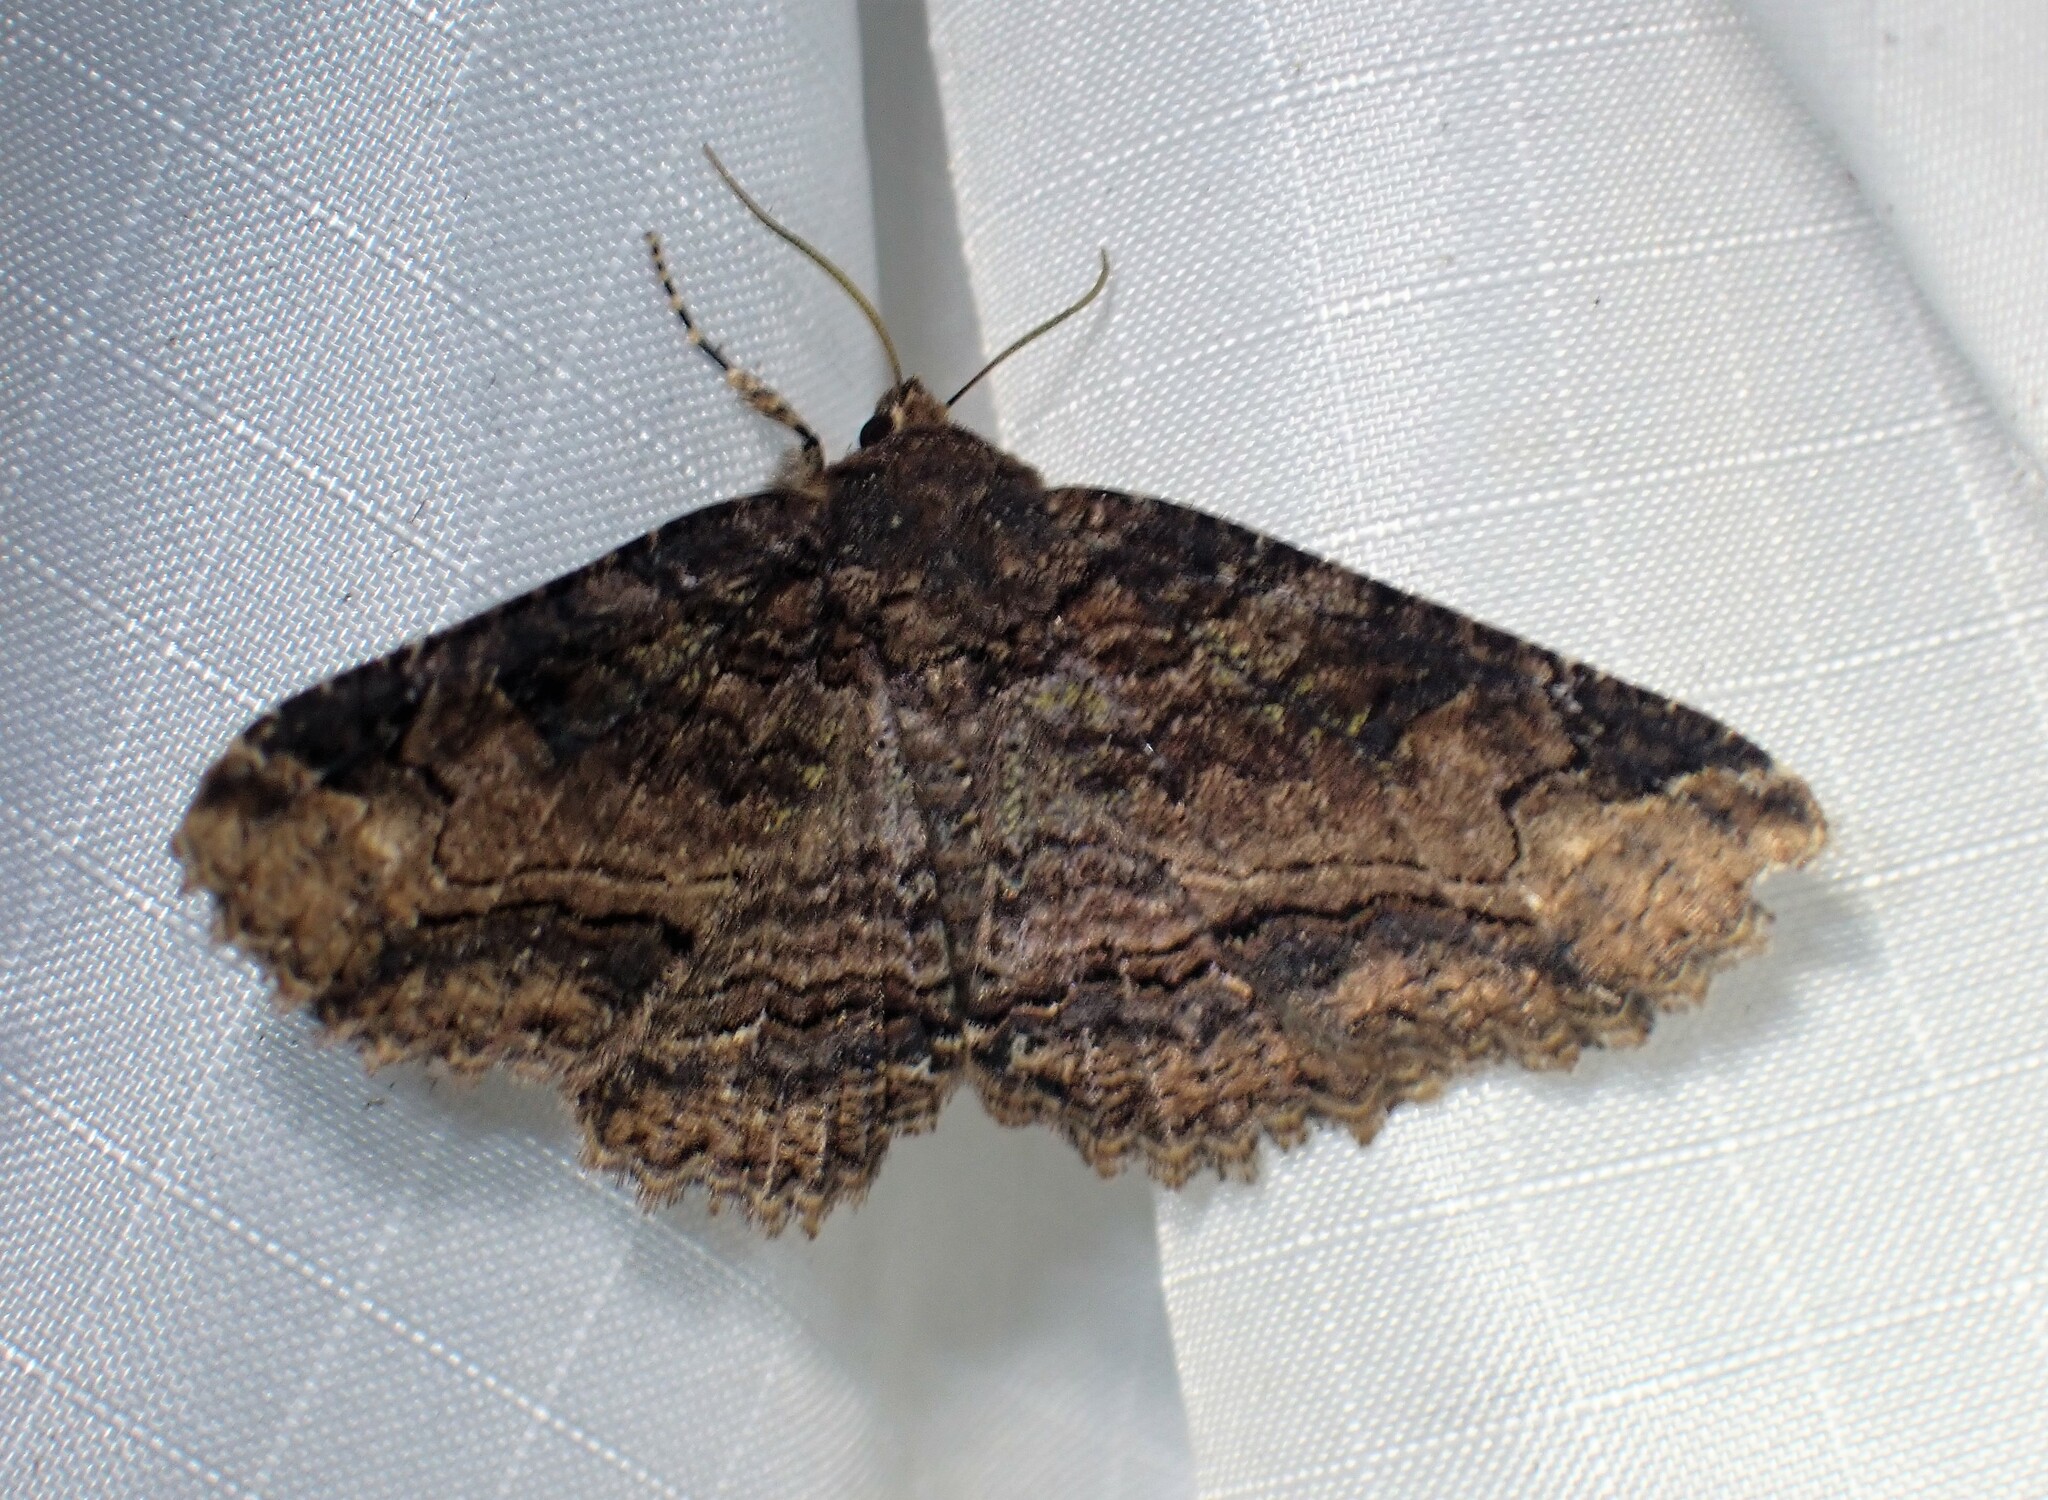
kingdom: Animalia
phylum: Arthropoda
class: Insecta
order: Lepidoptera
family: Erebidae
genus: Zale
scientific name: Zale minerea
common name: Colorful zale moth
